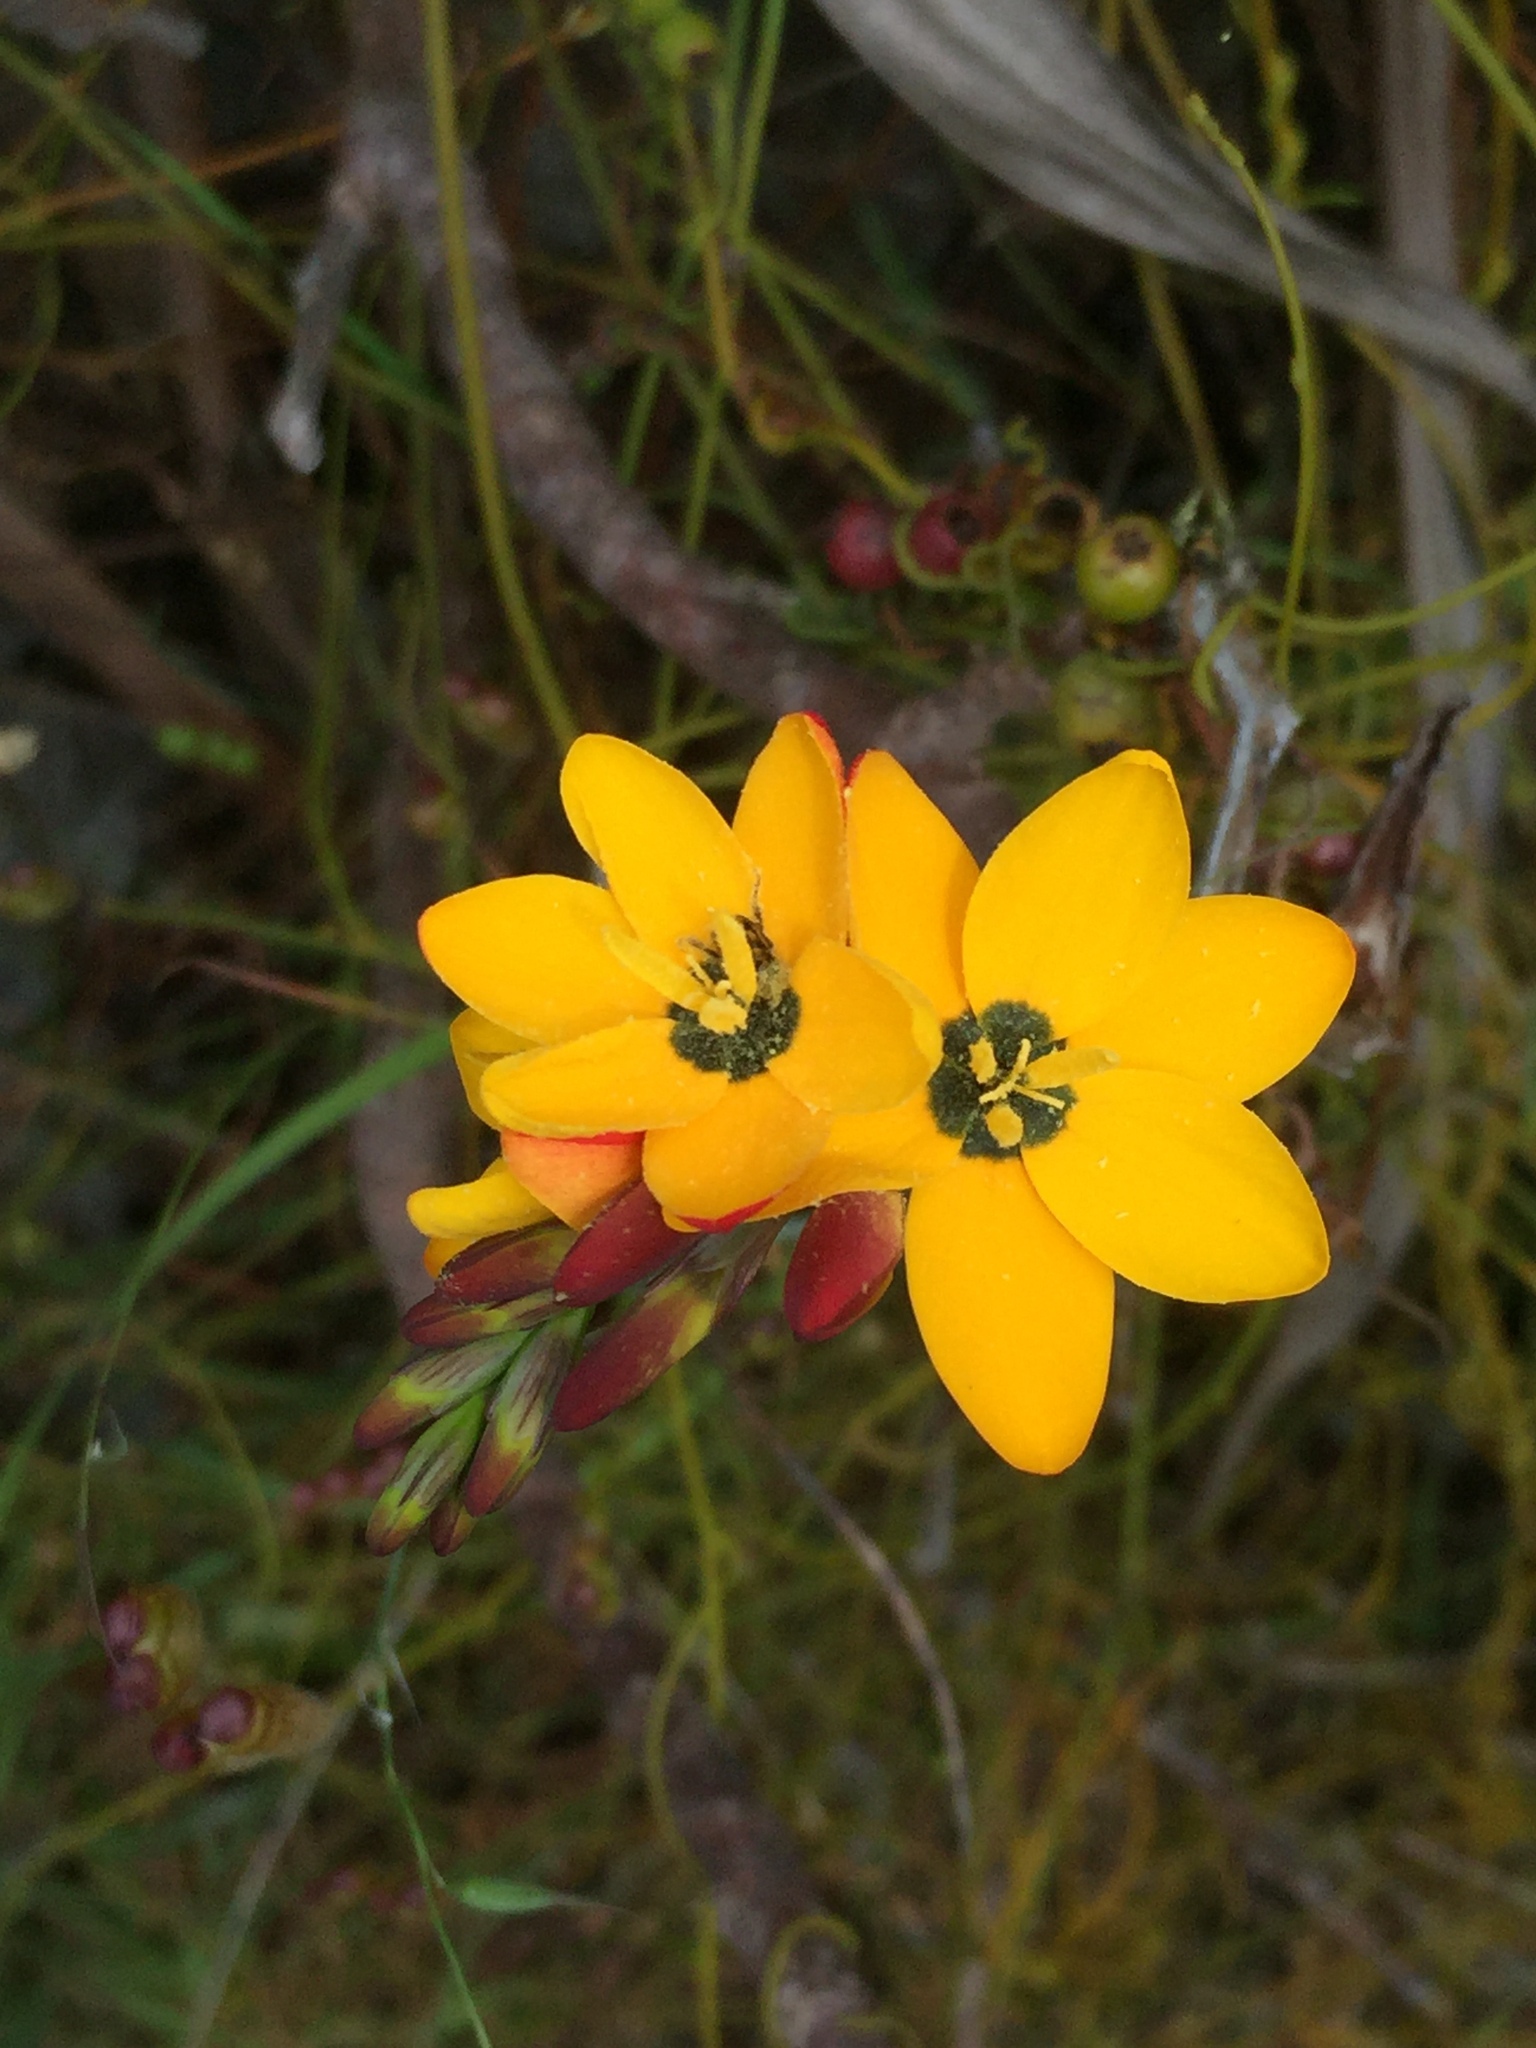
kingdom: Plantae
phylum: Tracheophyta
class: Liliopsida
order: Asparagales
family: Iridaceae
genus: Ixia
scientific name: Ixia dubia
